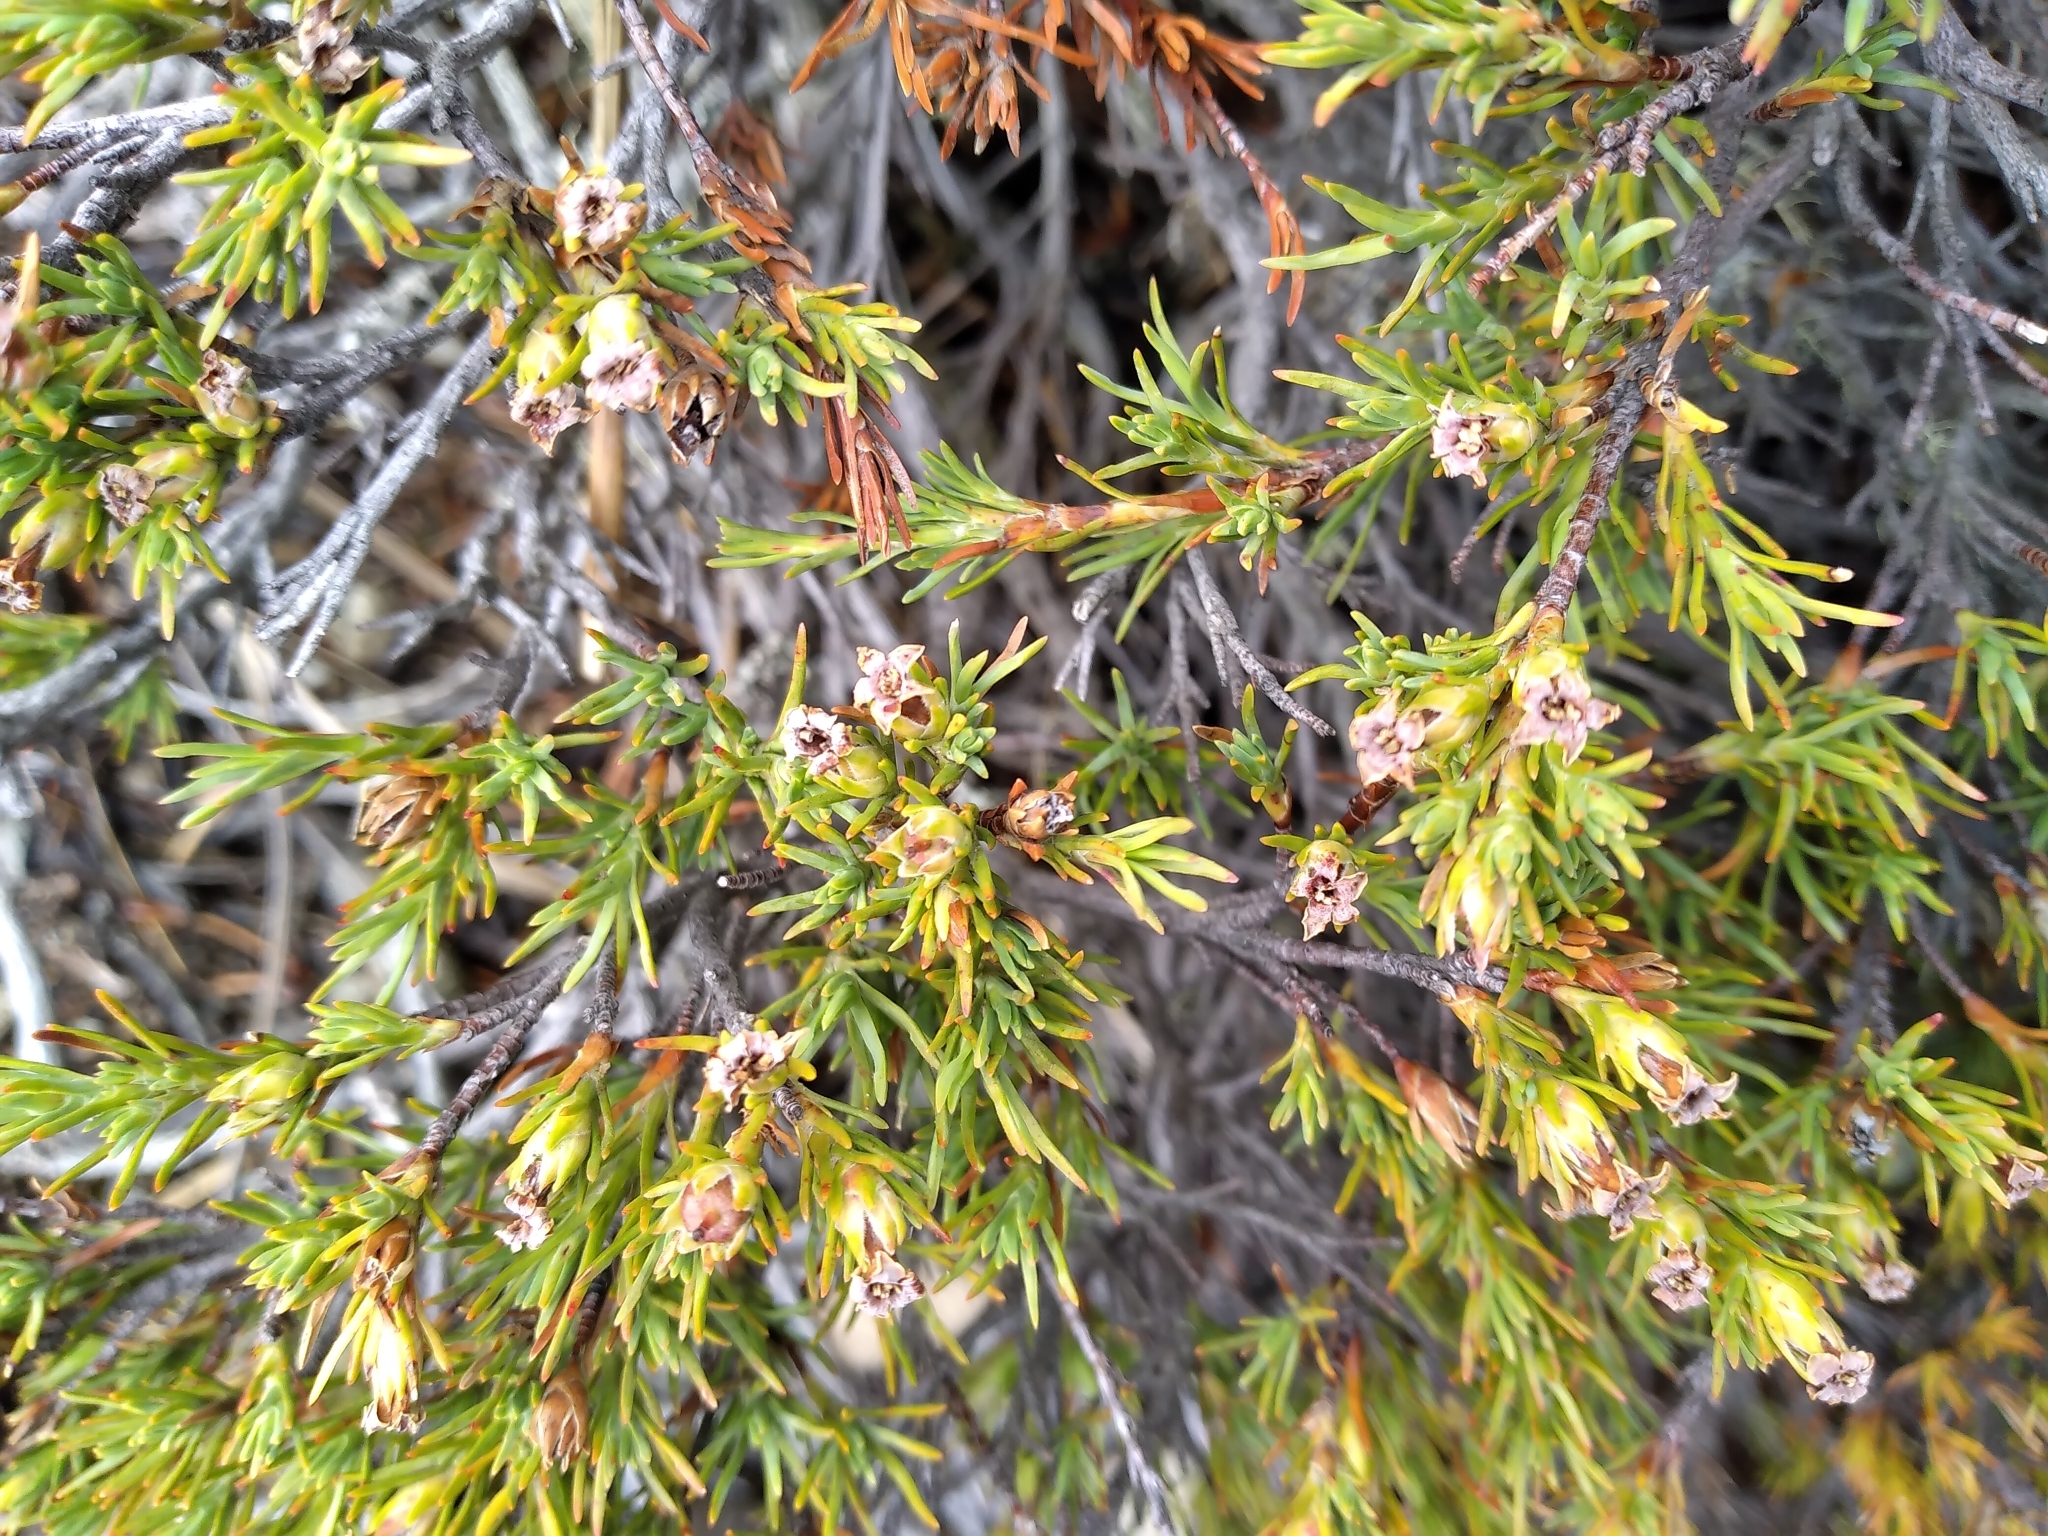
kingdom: Plantae
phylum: Tracheophyta
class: Magnoliopsida
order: Ericales
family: Ericaceae
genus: Dracophyllum
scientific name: Dracophyllum pronum
